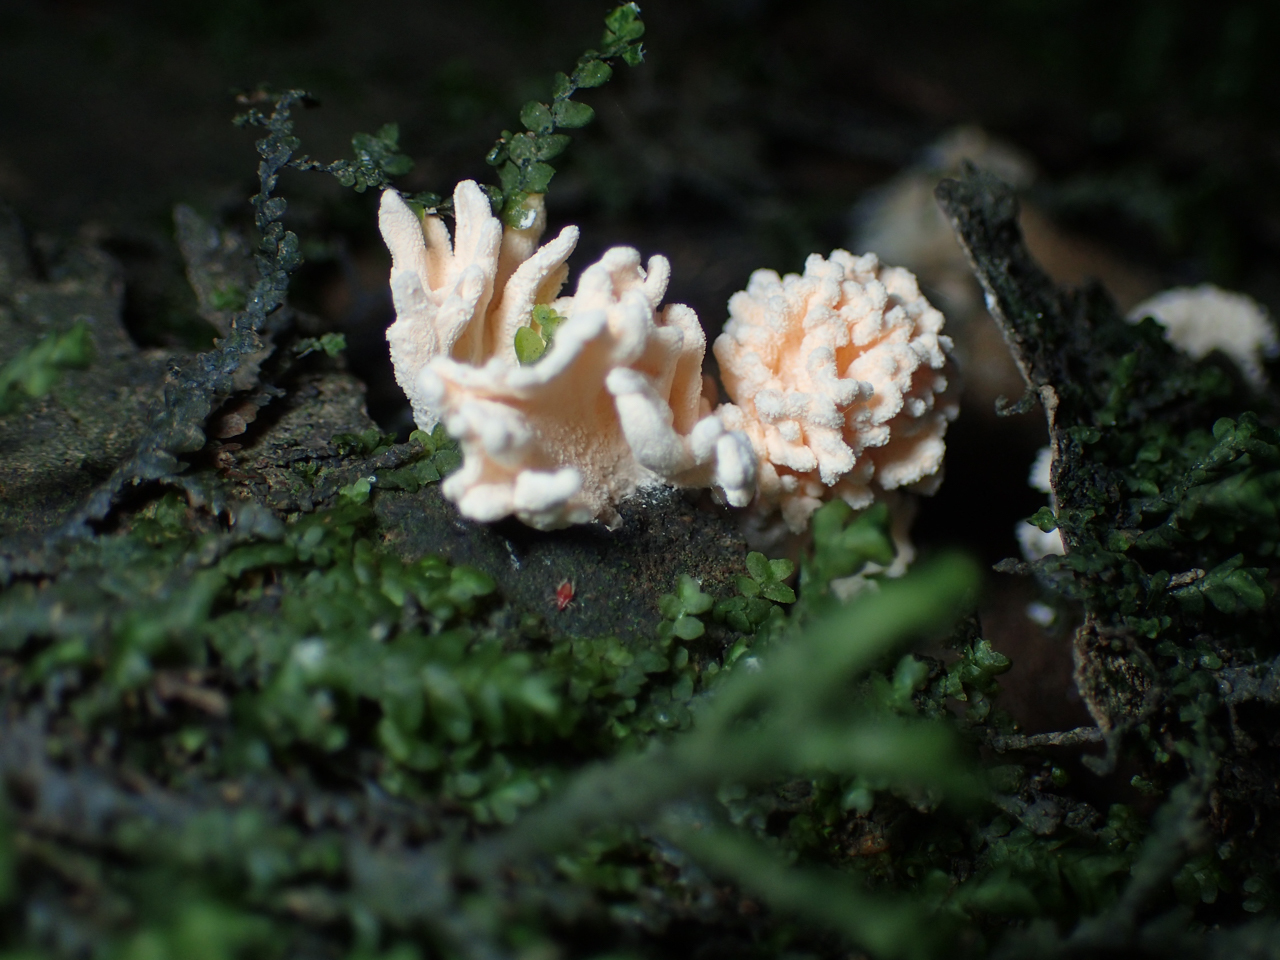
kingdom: Fungi
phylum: Ascomycota
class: Sordariomycetes
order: Xylariales
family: Xylariaceae
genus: Xylaria
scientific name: Xylaria cubensis
